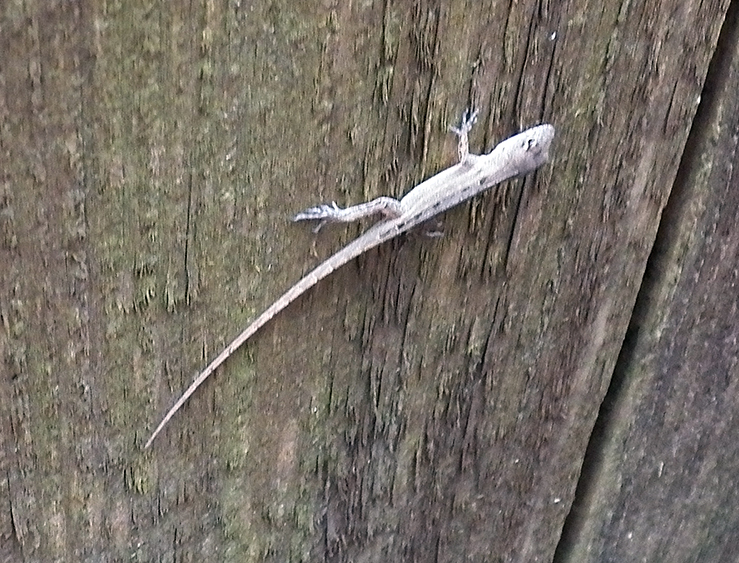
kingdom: Animalia
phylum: Chordata
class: Squamata
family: Dactyloidae
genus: Anolis
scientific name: Anolis sagrei
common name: Brown anole
